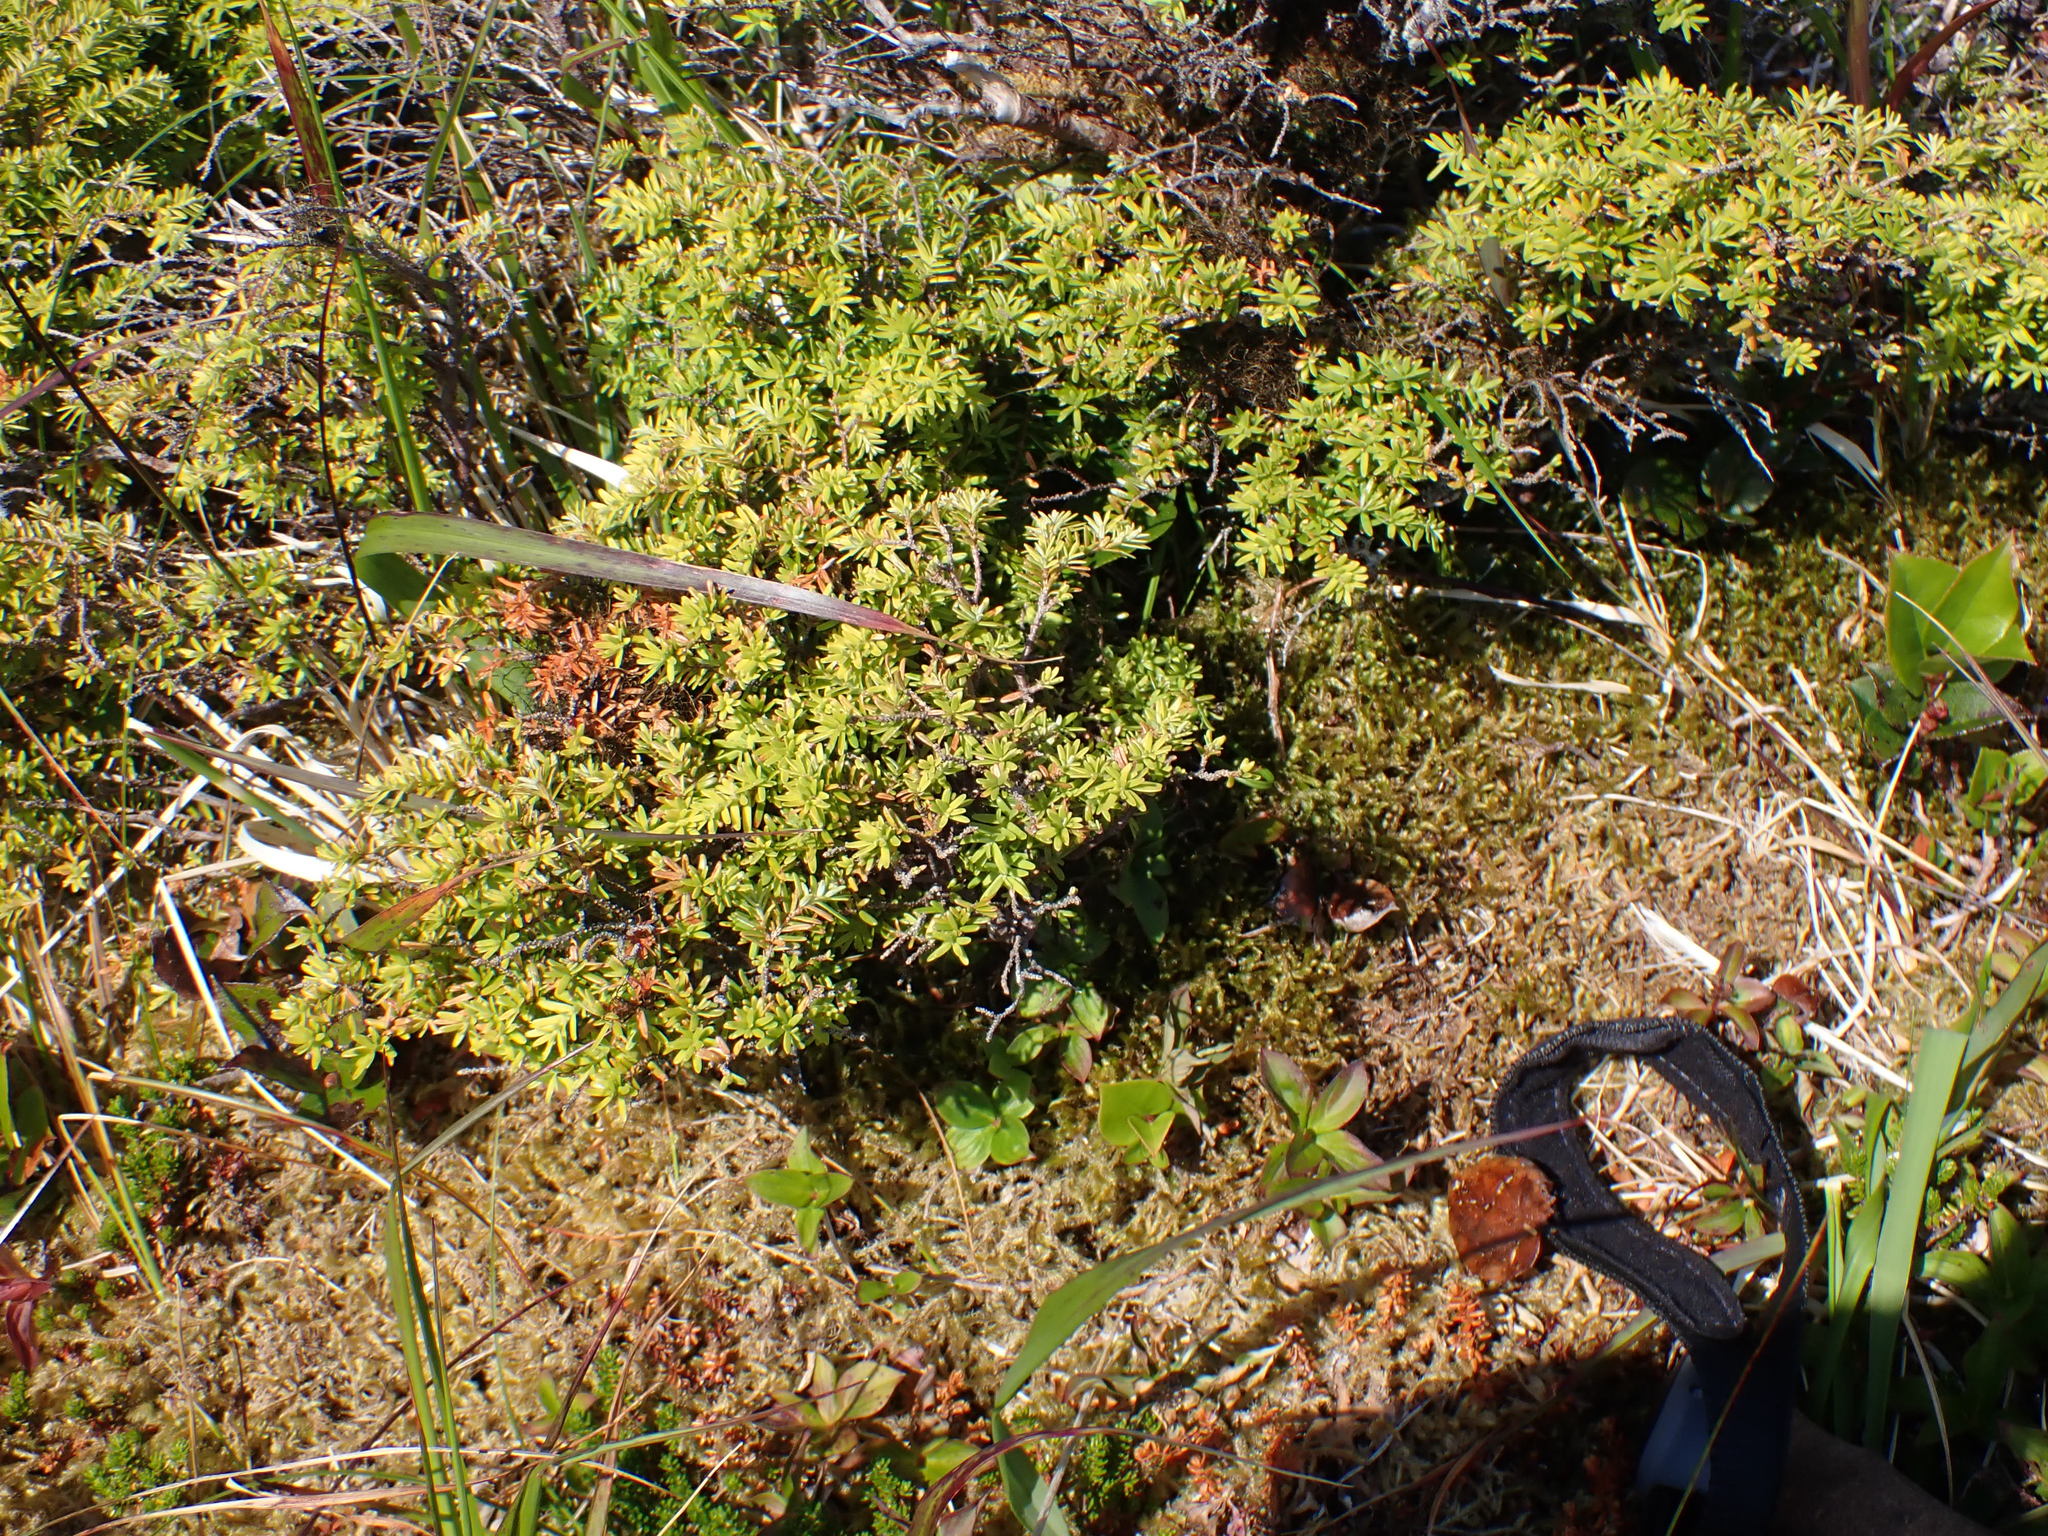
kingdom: Plantae
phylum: Tracheophyta
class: Magnoliopsida
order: Ericales
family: Ericaceae
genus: Empetrum
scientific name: Empetrum nigrum
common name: Black crowberry
